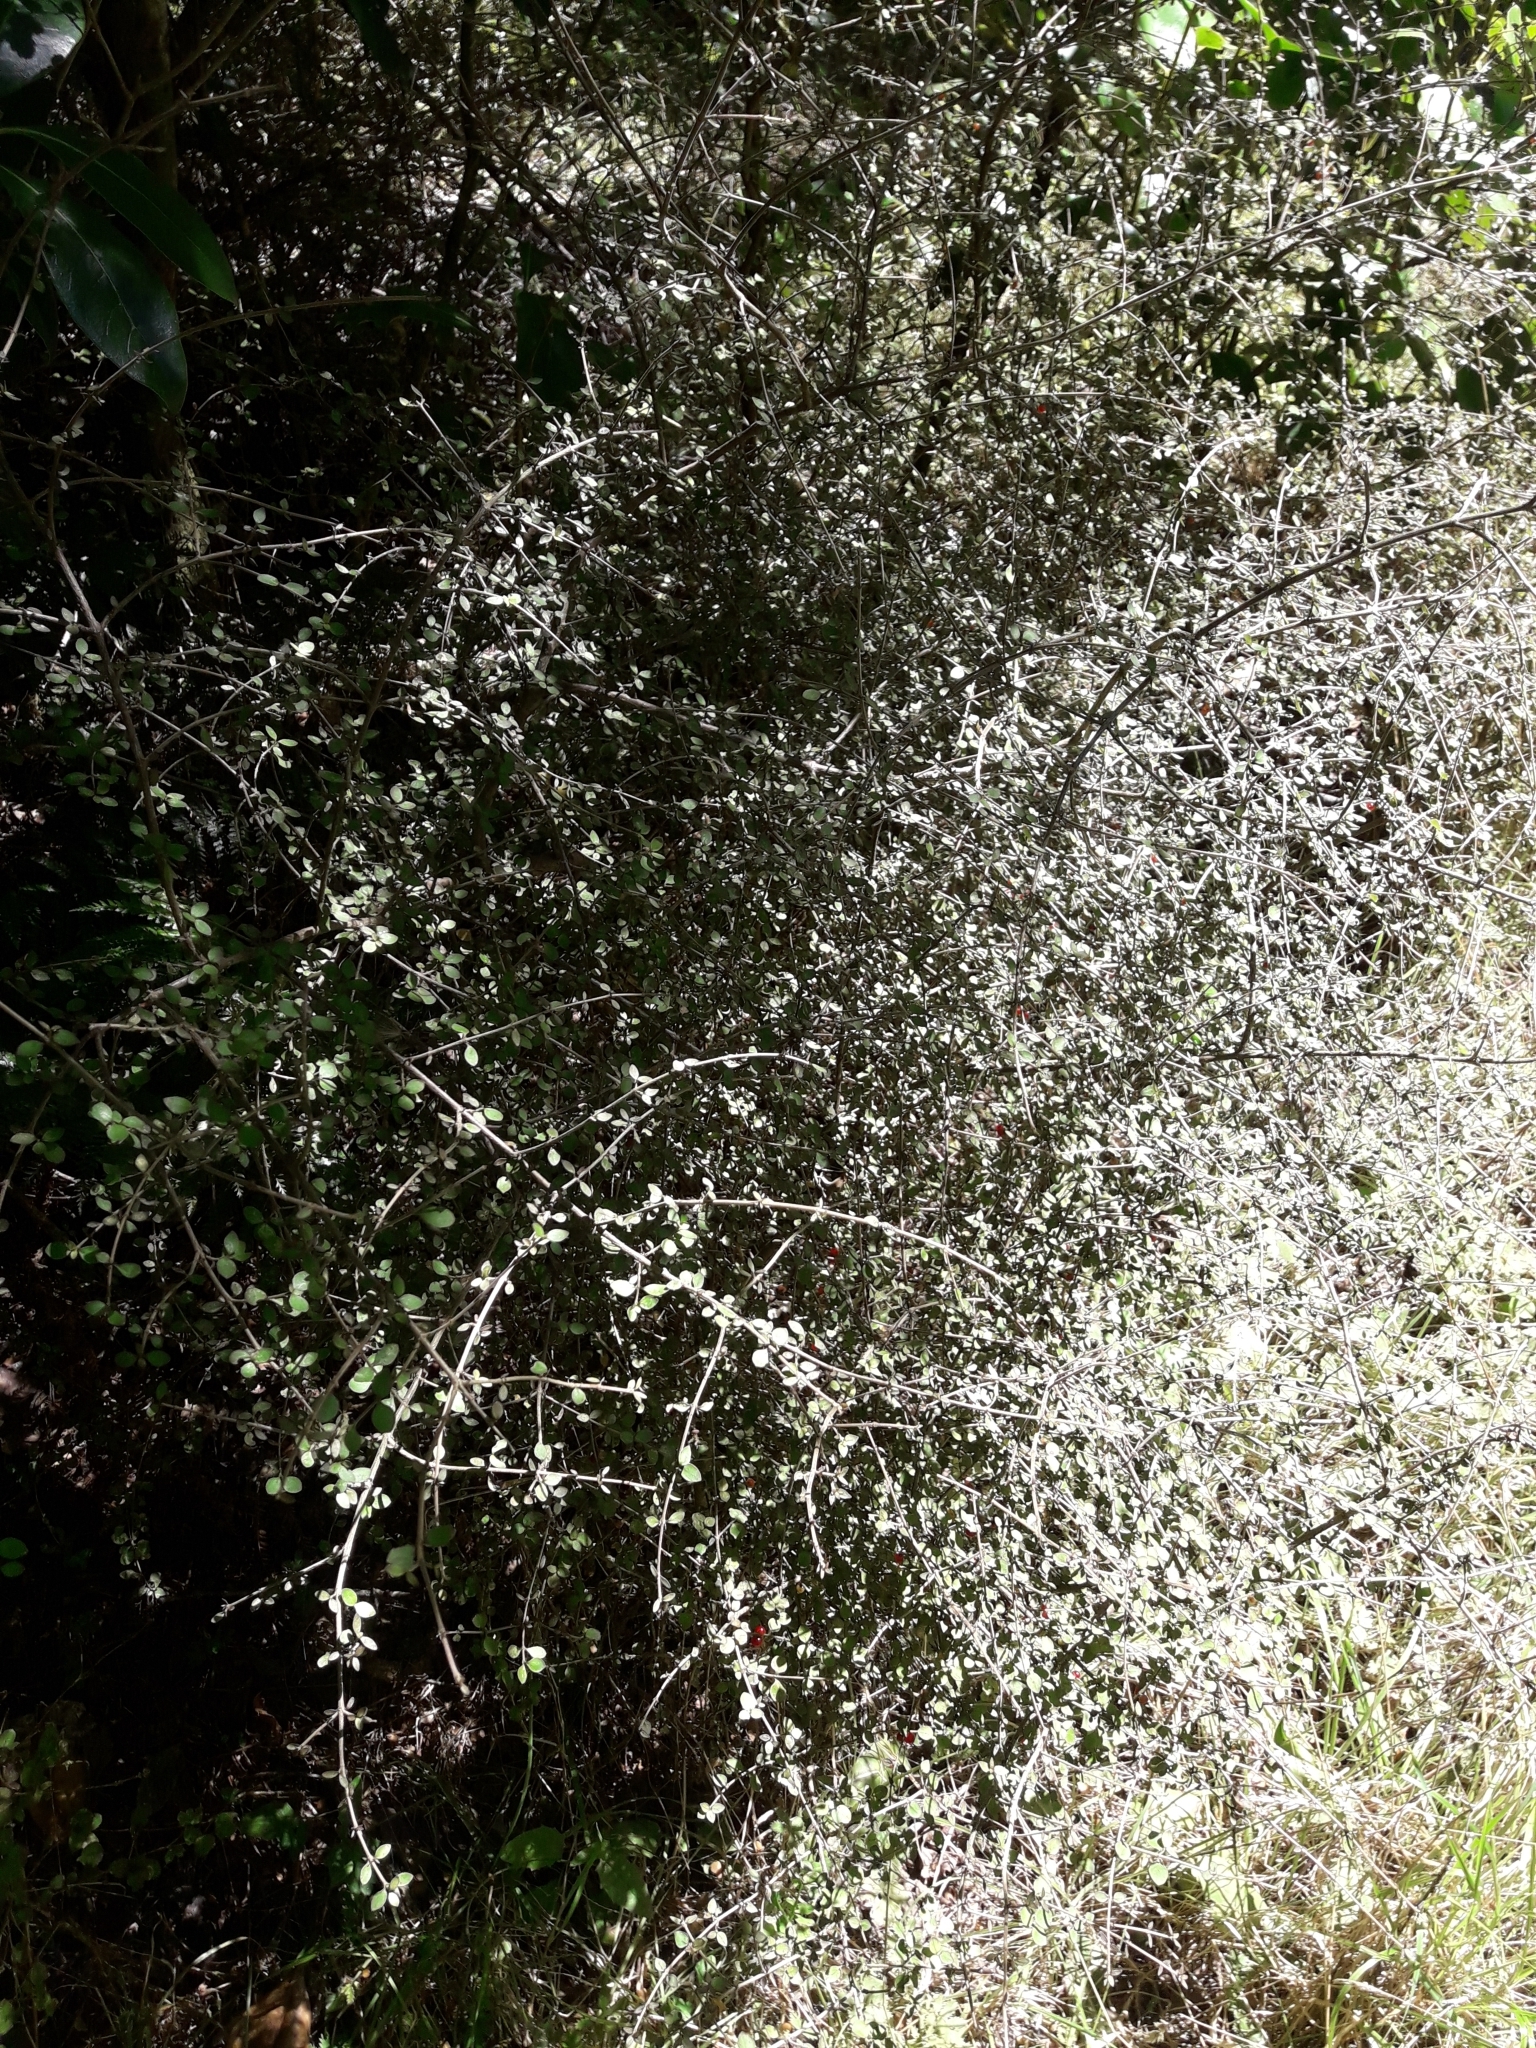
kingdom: Plantae
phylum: Tracheophyta
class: Magnoliopsida
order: Gentianales
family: Rubiaceae
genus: Coprosma
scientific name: Coprosma rhamnoides
